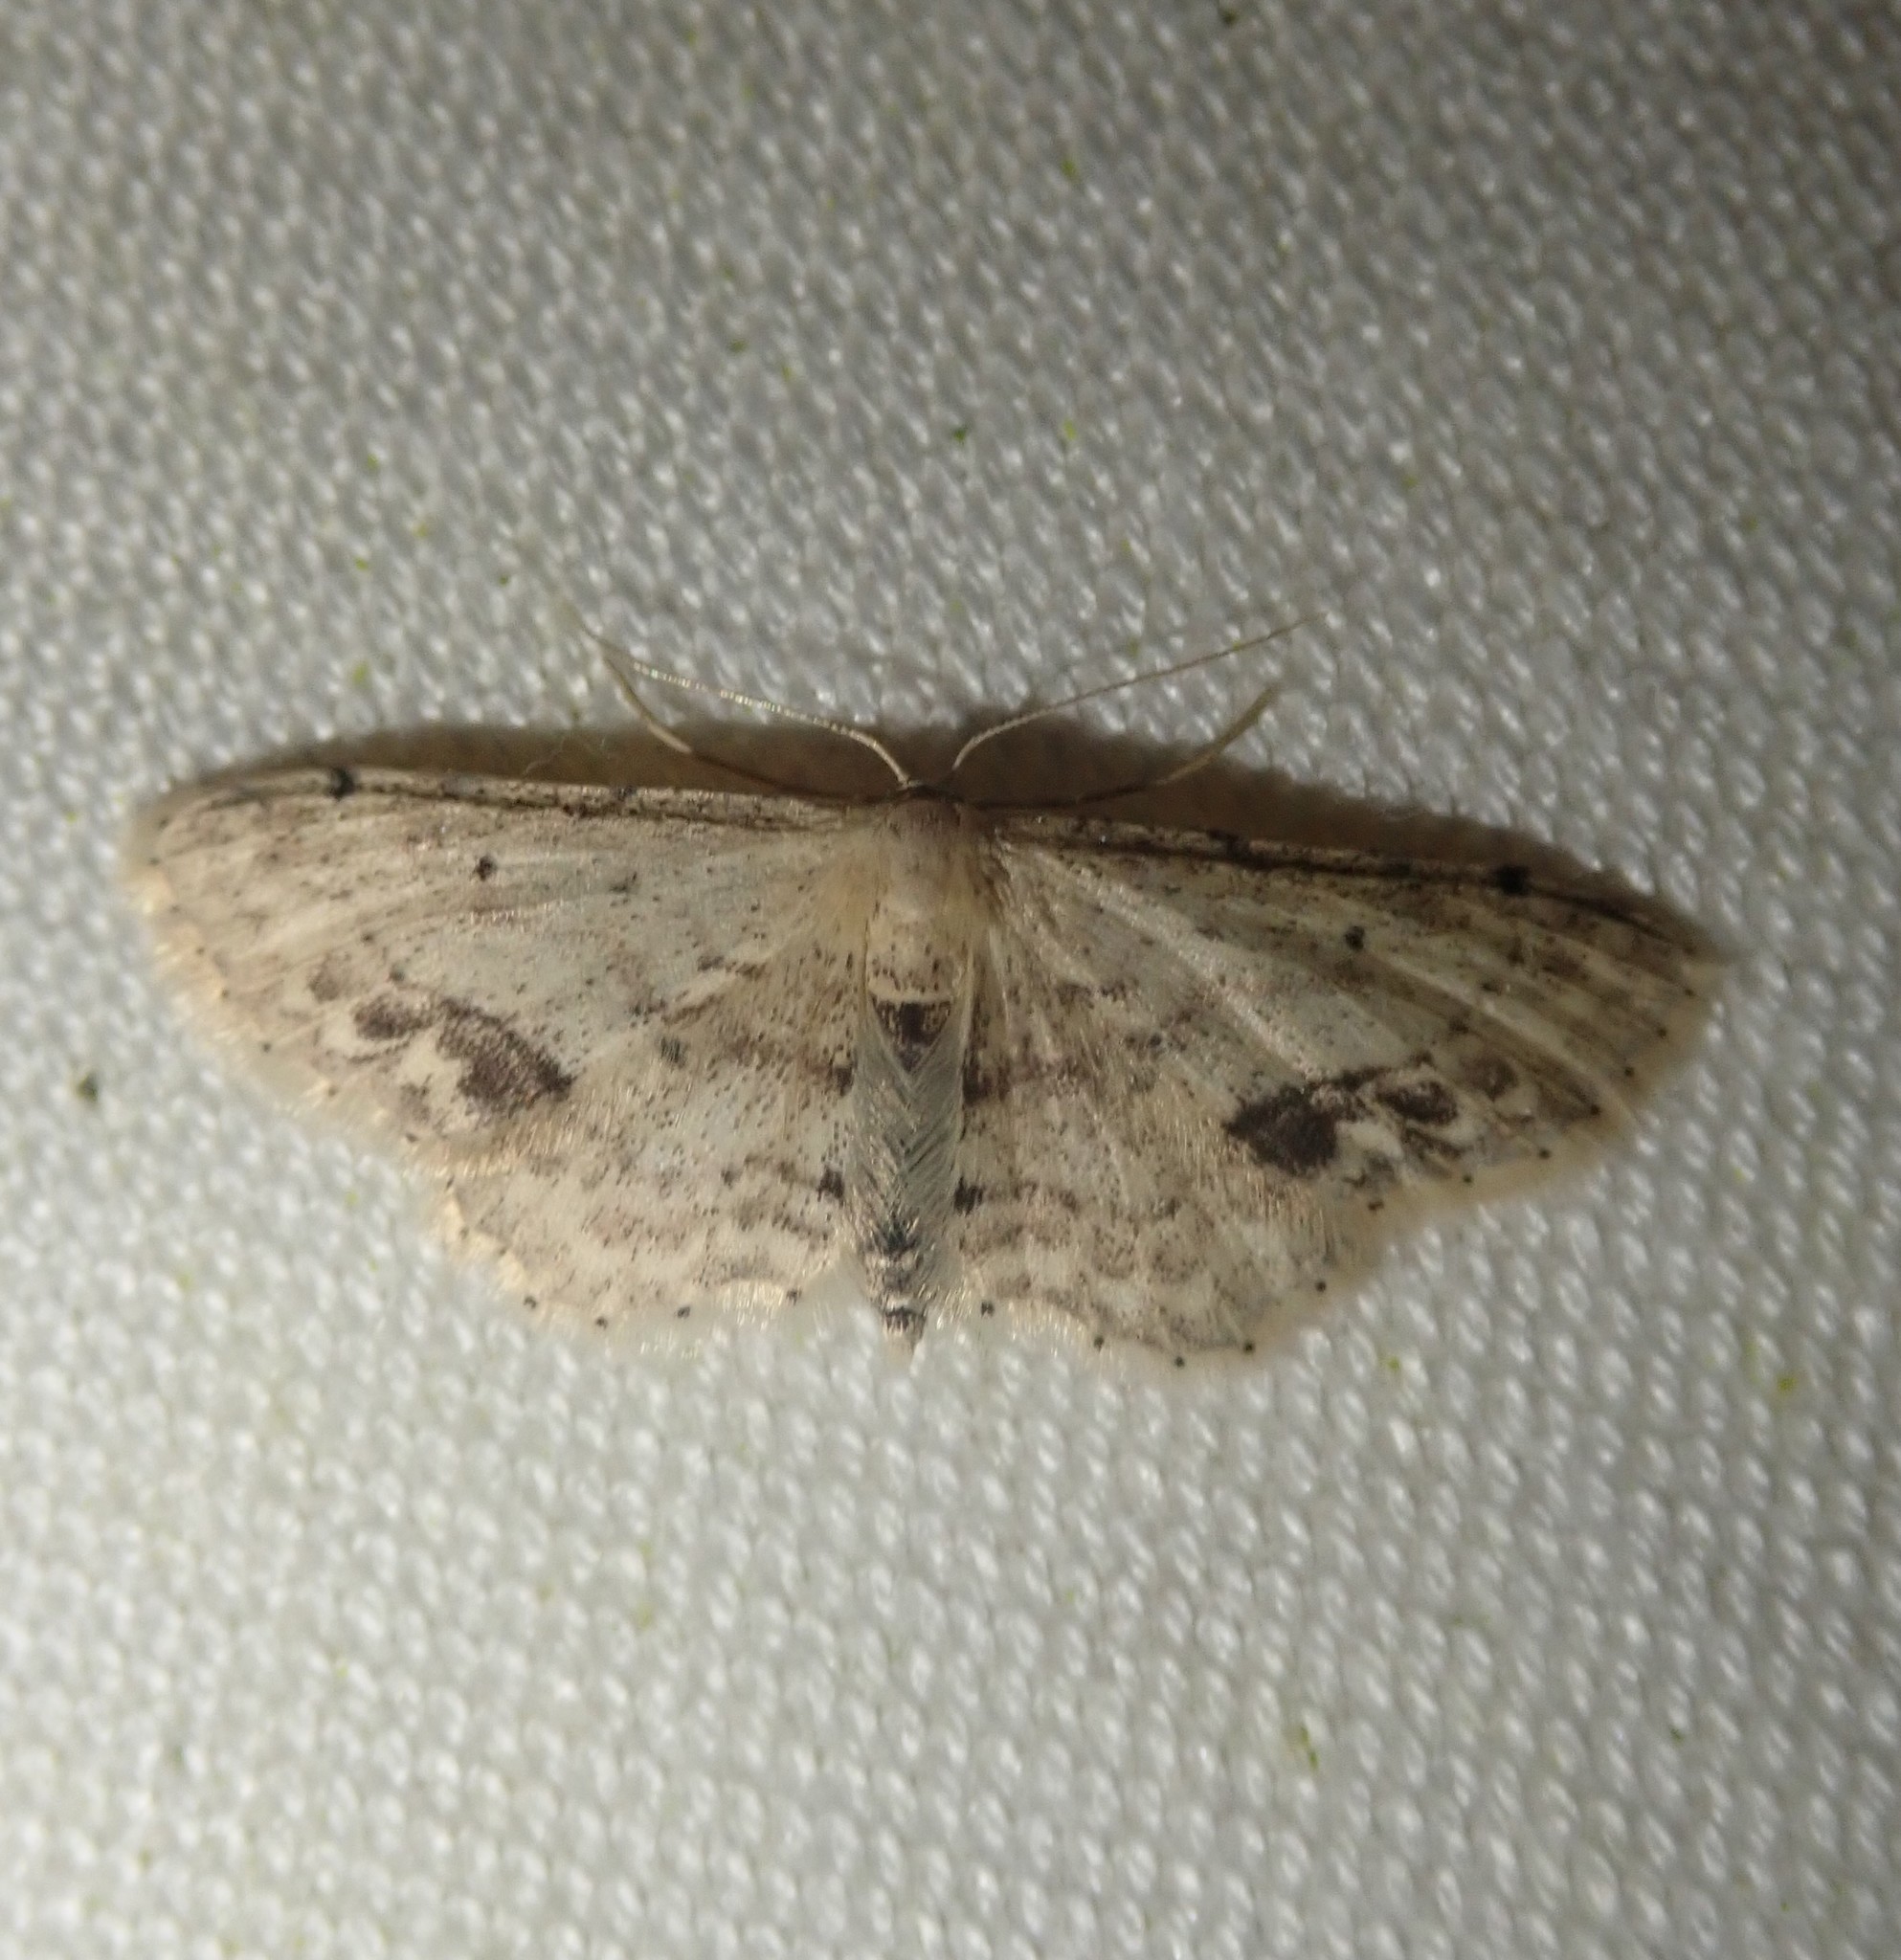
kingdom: Animalia
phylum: Arthropoda
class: Insecta
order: Lepidoptera
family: Geometridae
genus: Idaea
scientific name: Idaea dimidiata
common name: Single-dotted wave
